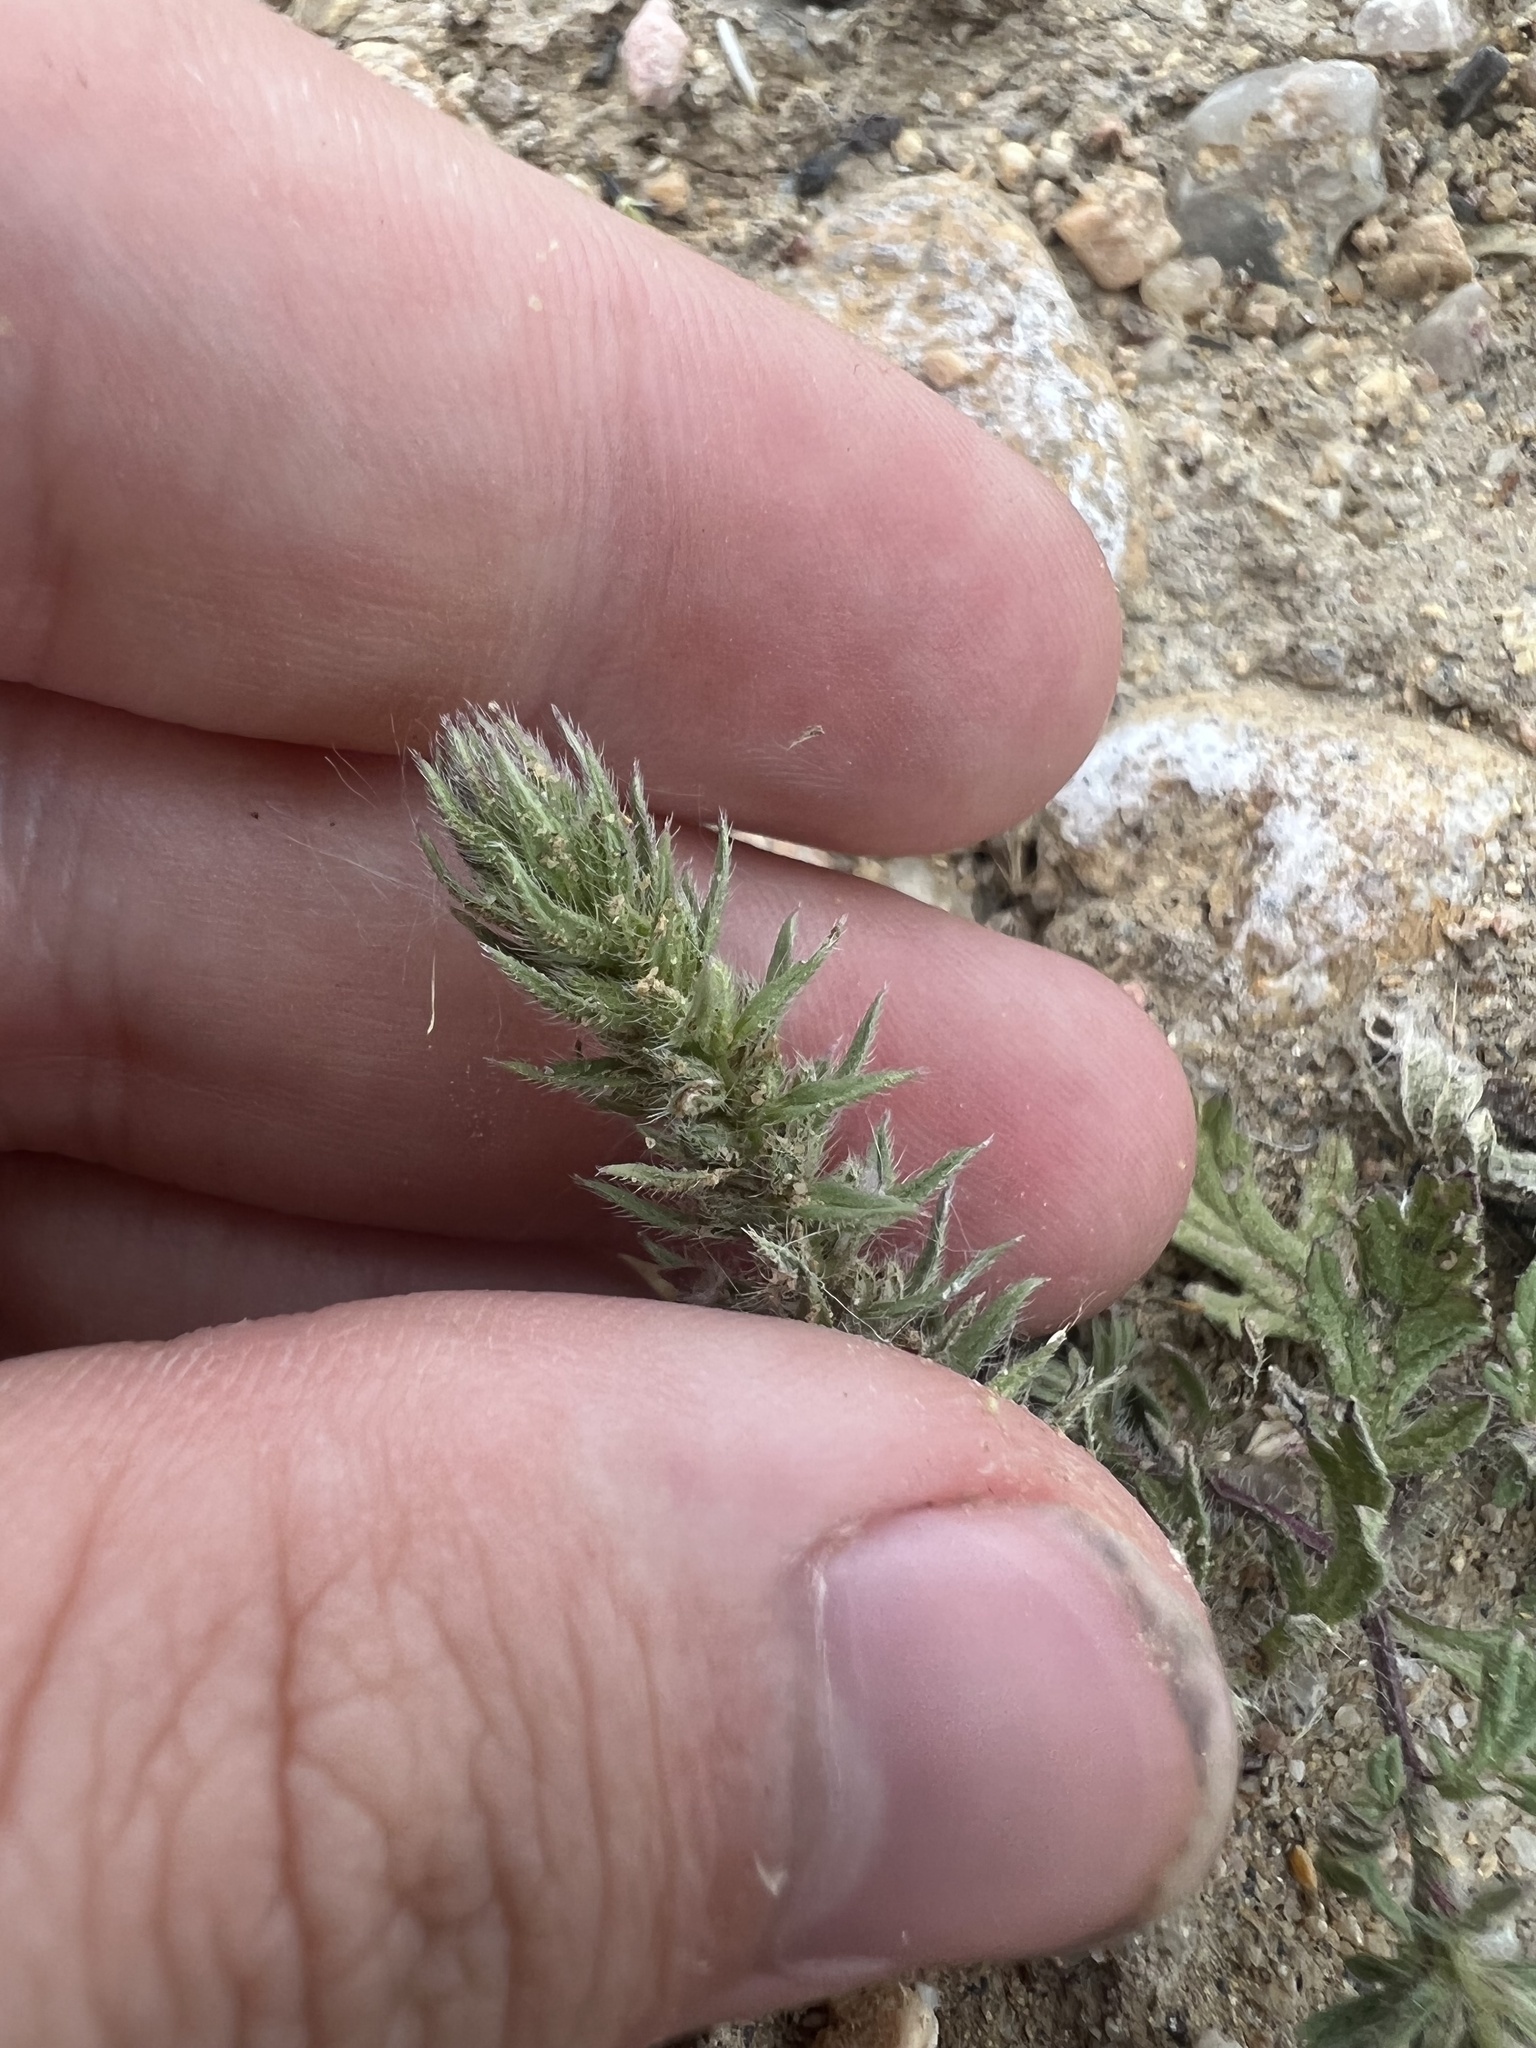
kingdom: Plantae
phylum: Tracheophyta
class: Magnoliopsida
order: Lamiales
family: Verbenaceae
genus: Verbena
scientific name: Verbena bracteata
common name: Bracted vervain
